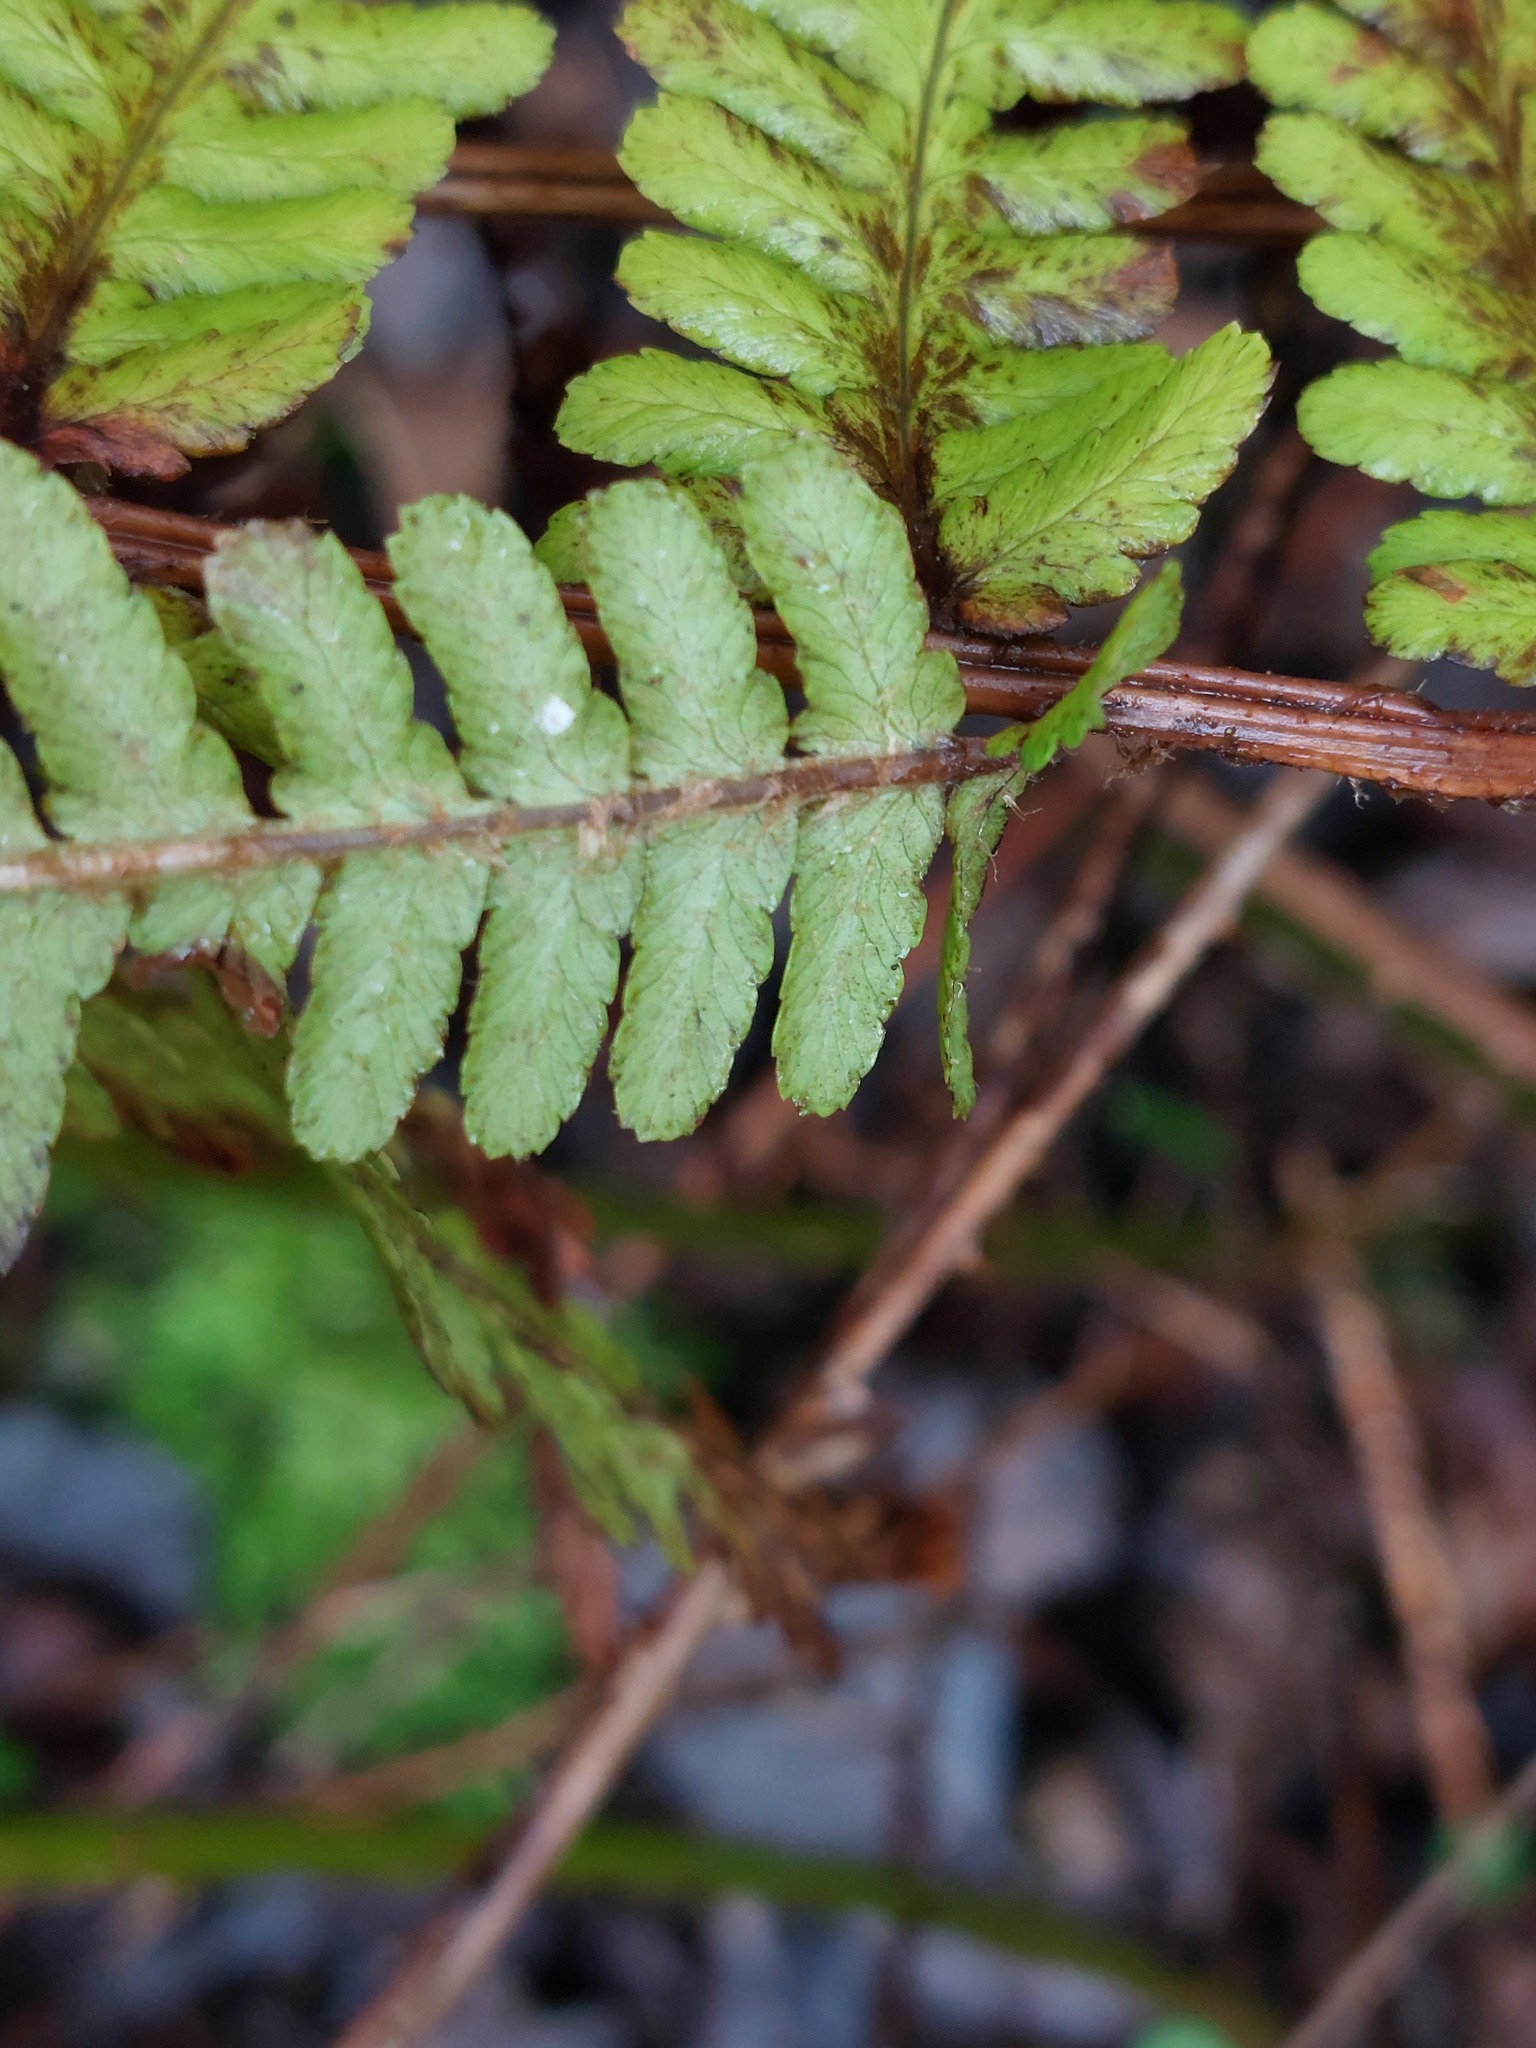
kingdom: Plantae
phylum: Tracheophyta
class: Polypodiopsida
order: Polypodiales
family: Dryopteridaceae
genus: Dryopteris
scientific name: Dryopteris filix-mas
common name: Male fern
